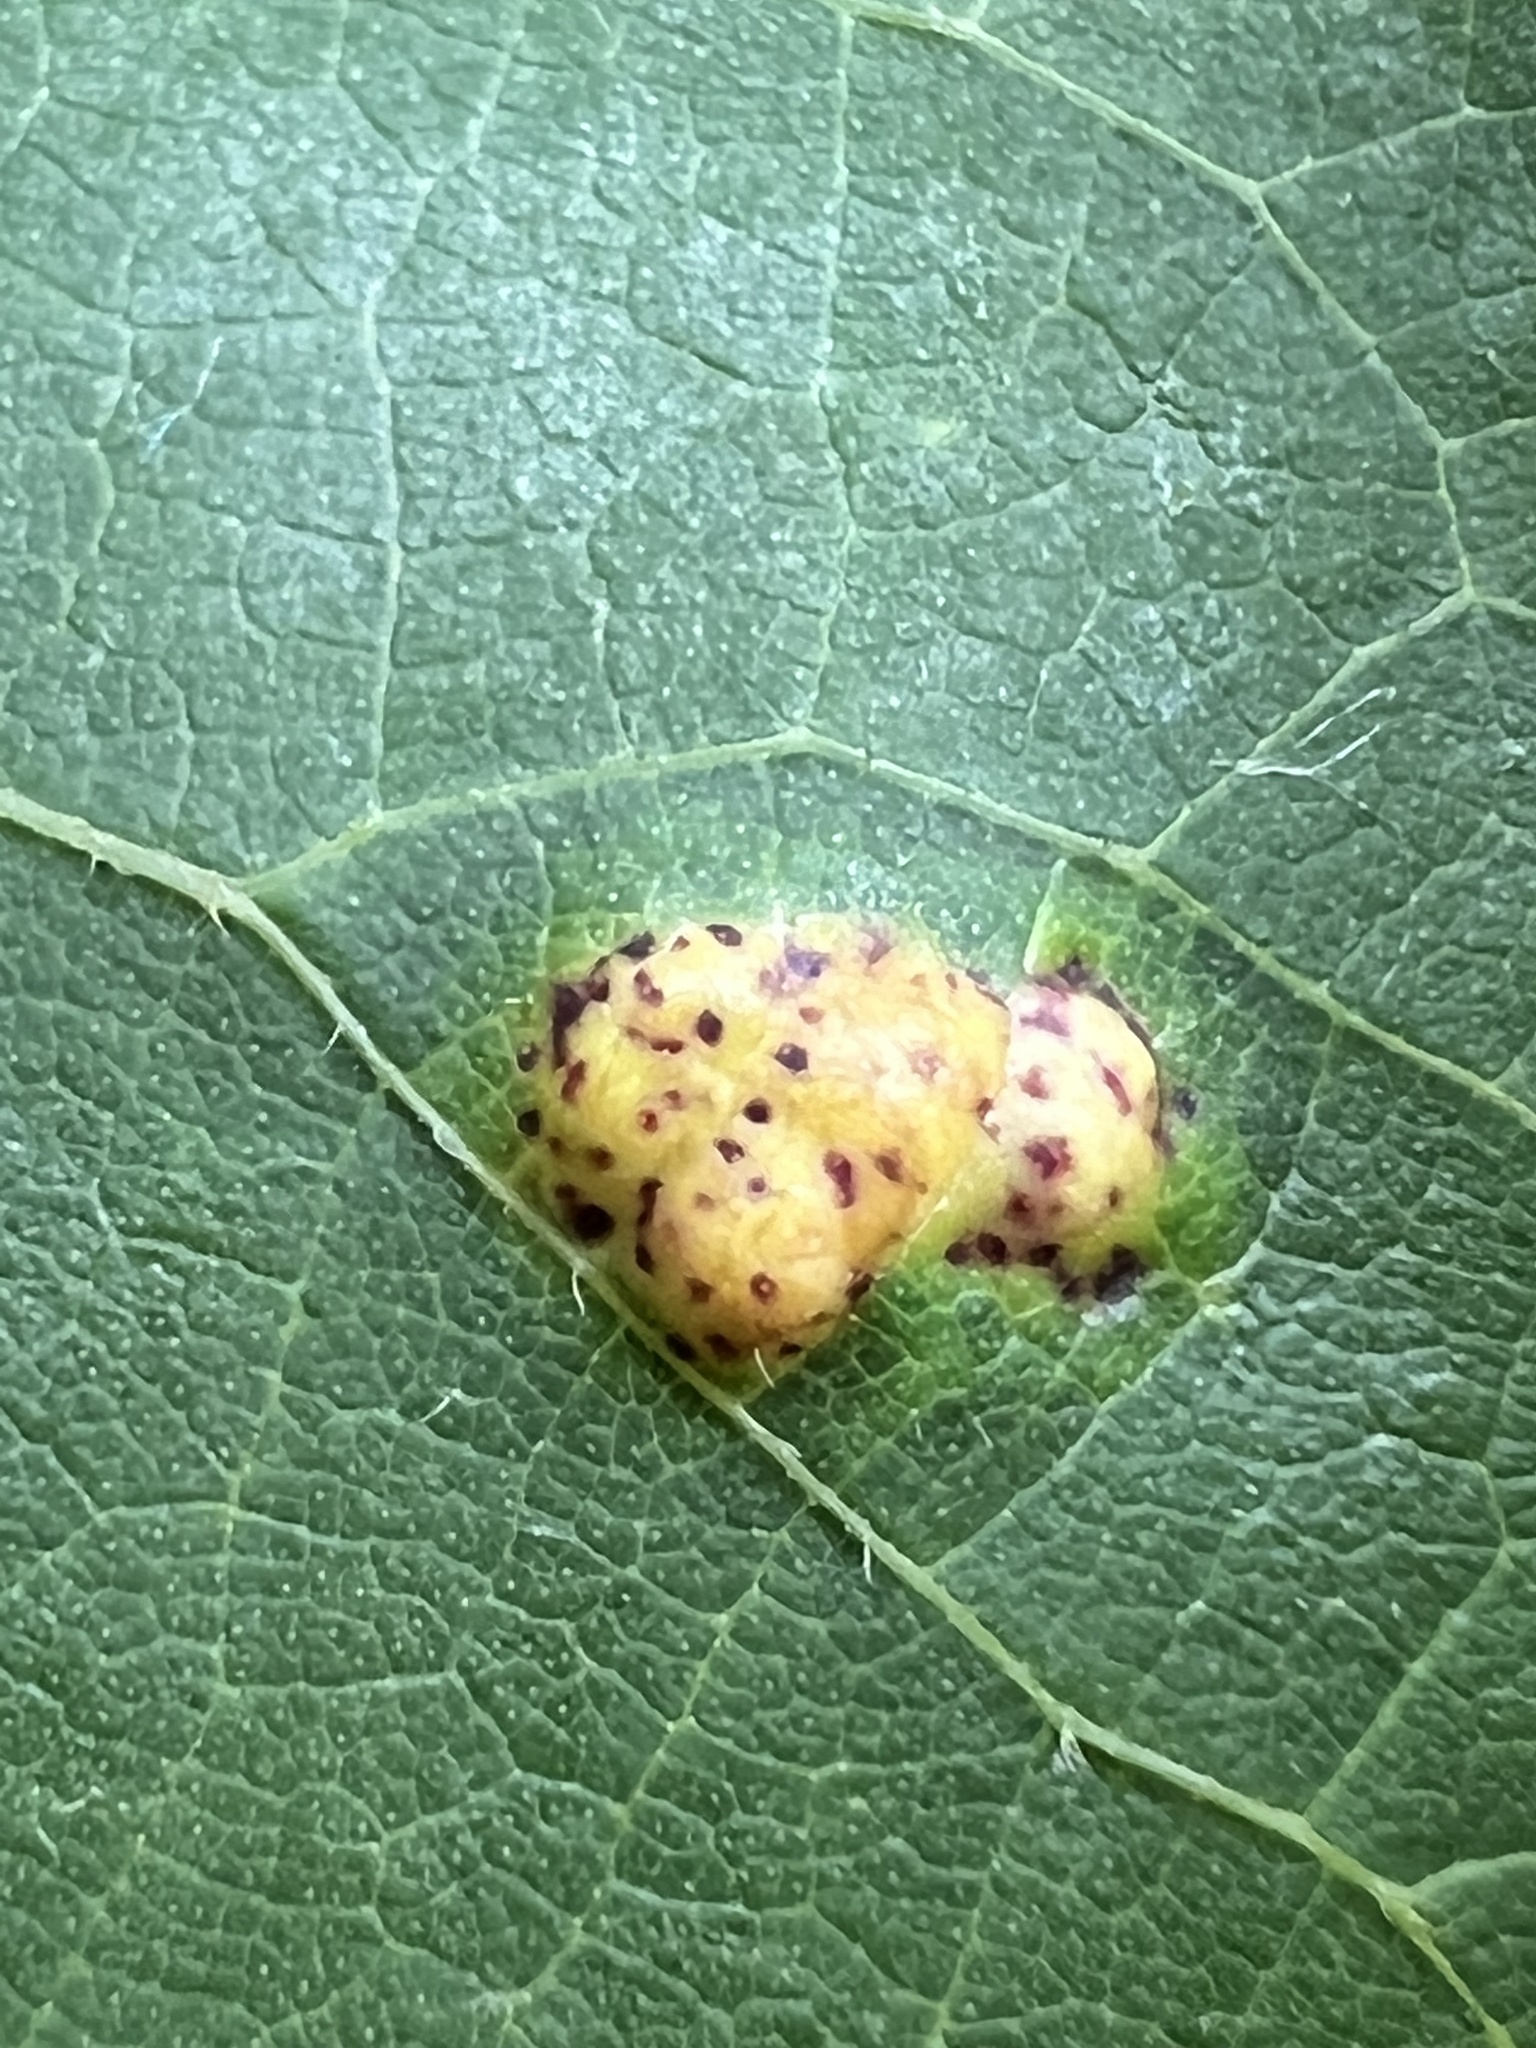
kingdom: Animalia
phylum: Arthropoda
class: Insecta
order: Diptera
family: Cecidomyiidae
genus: Gliaspilota
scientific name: Gliaspilota glutinosa
